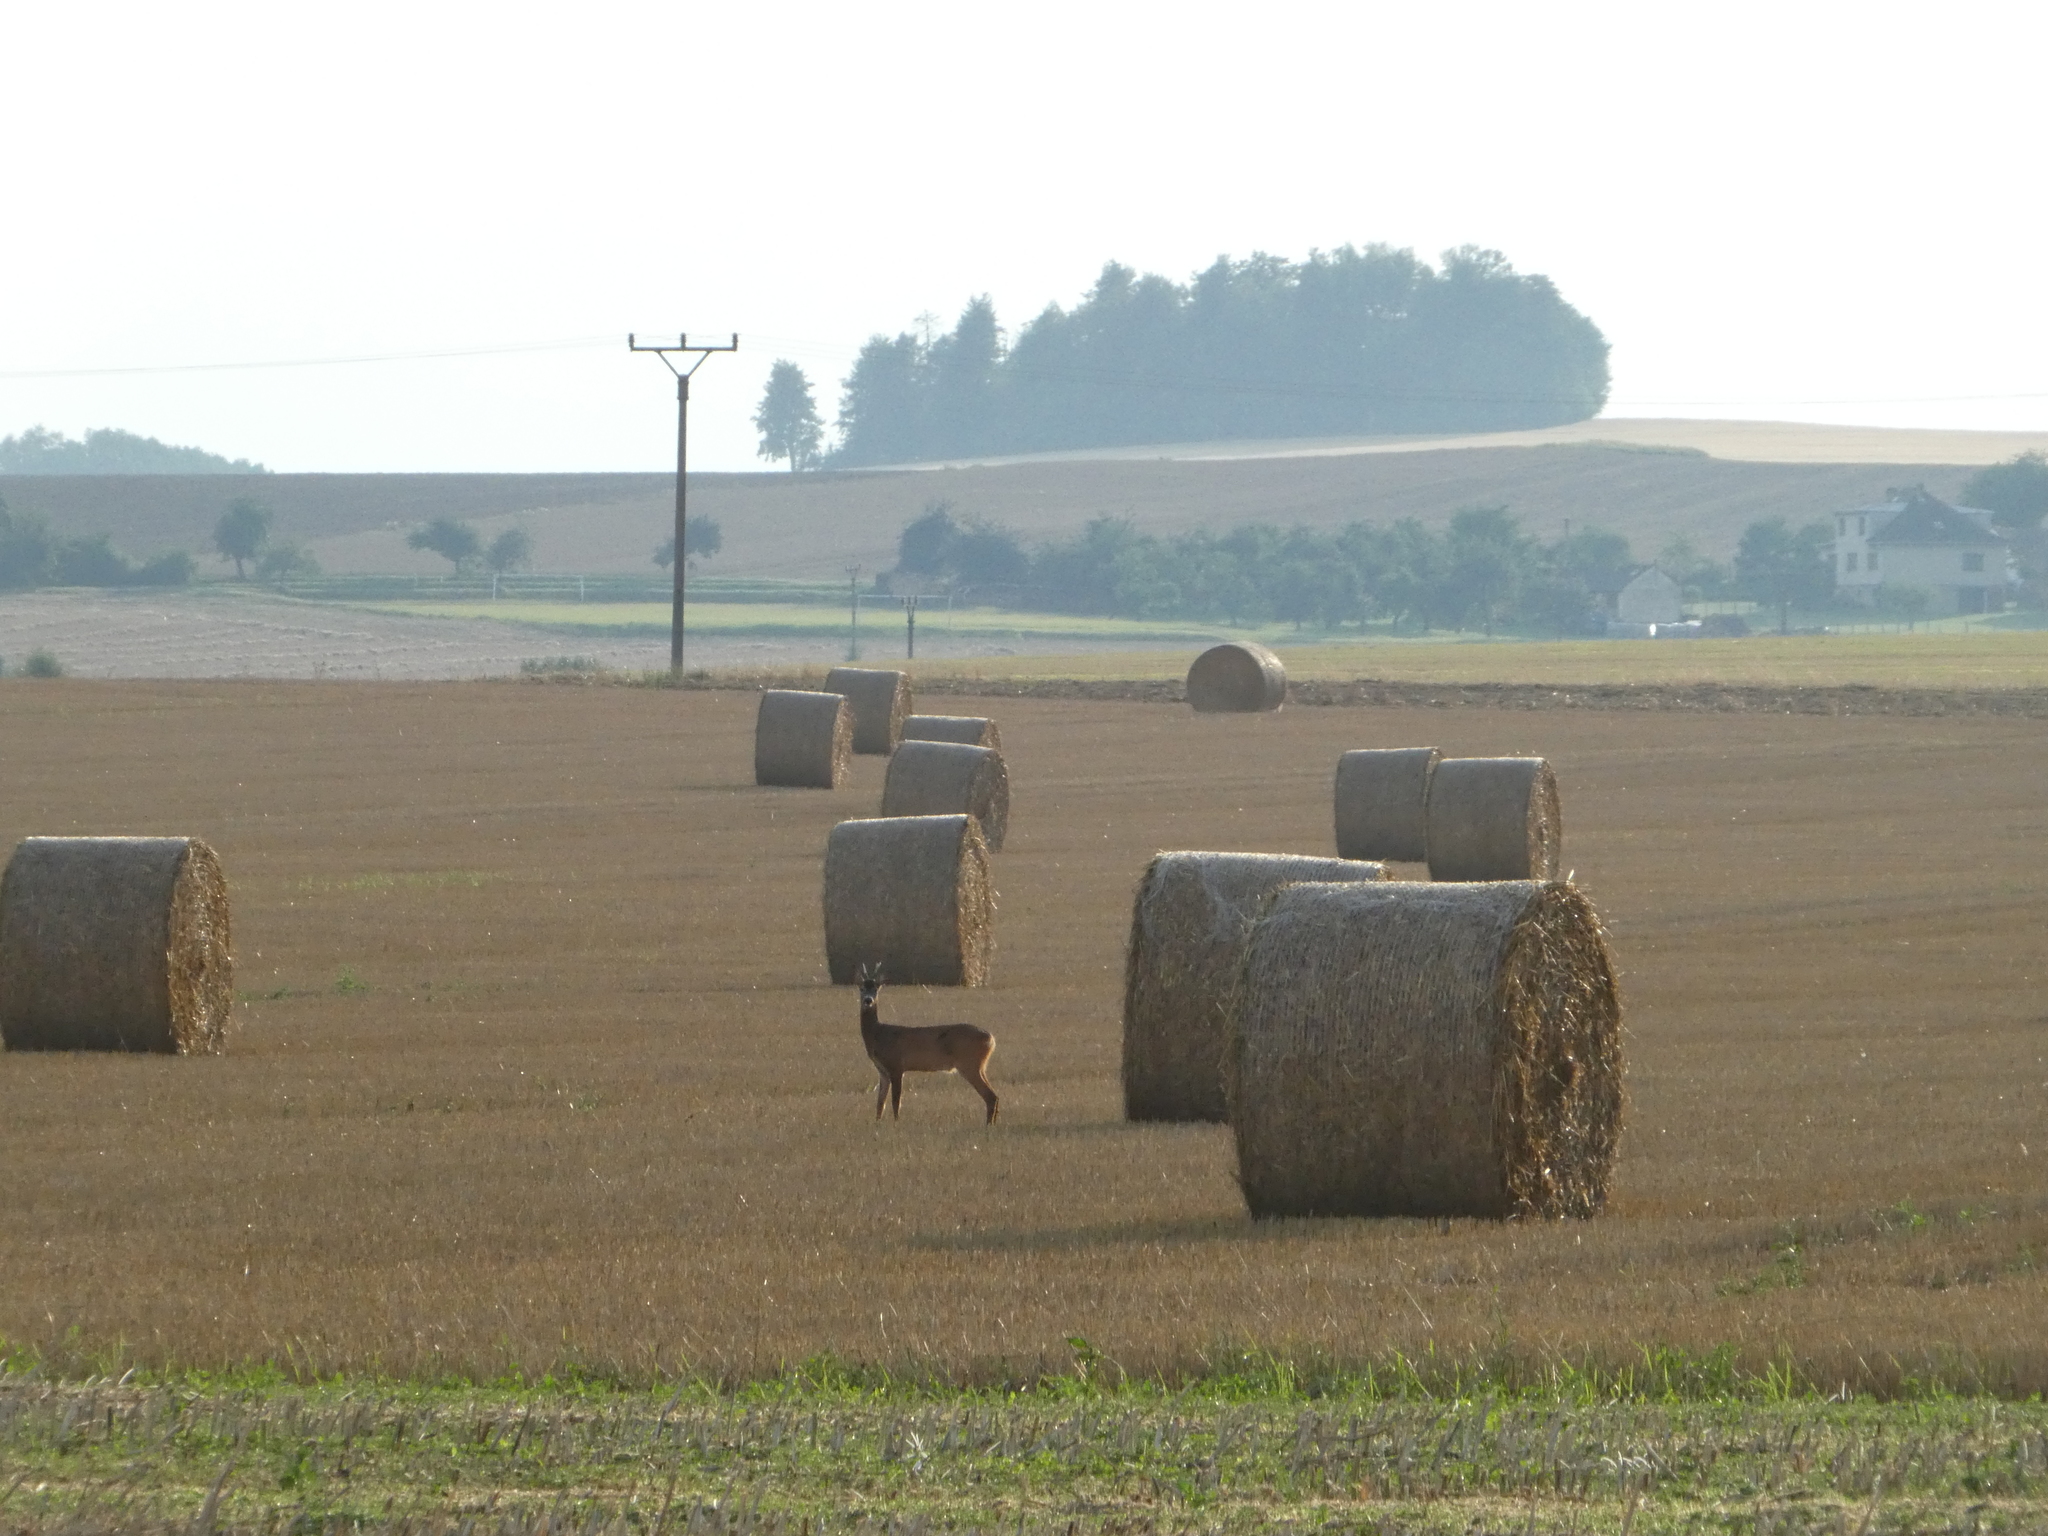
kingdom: Animalia
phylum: Chordata
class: Mammalia
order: Artiodactyla
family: Cervidae
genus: Capreolus
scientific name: Capreolus capreolus
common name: Western roe deer
